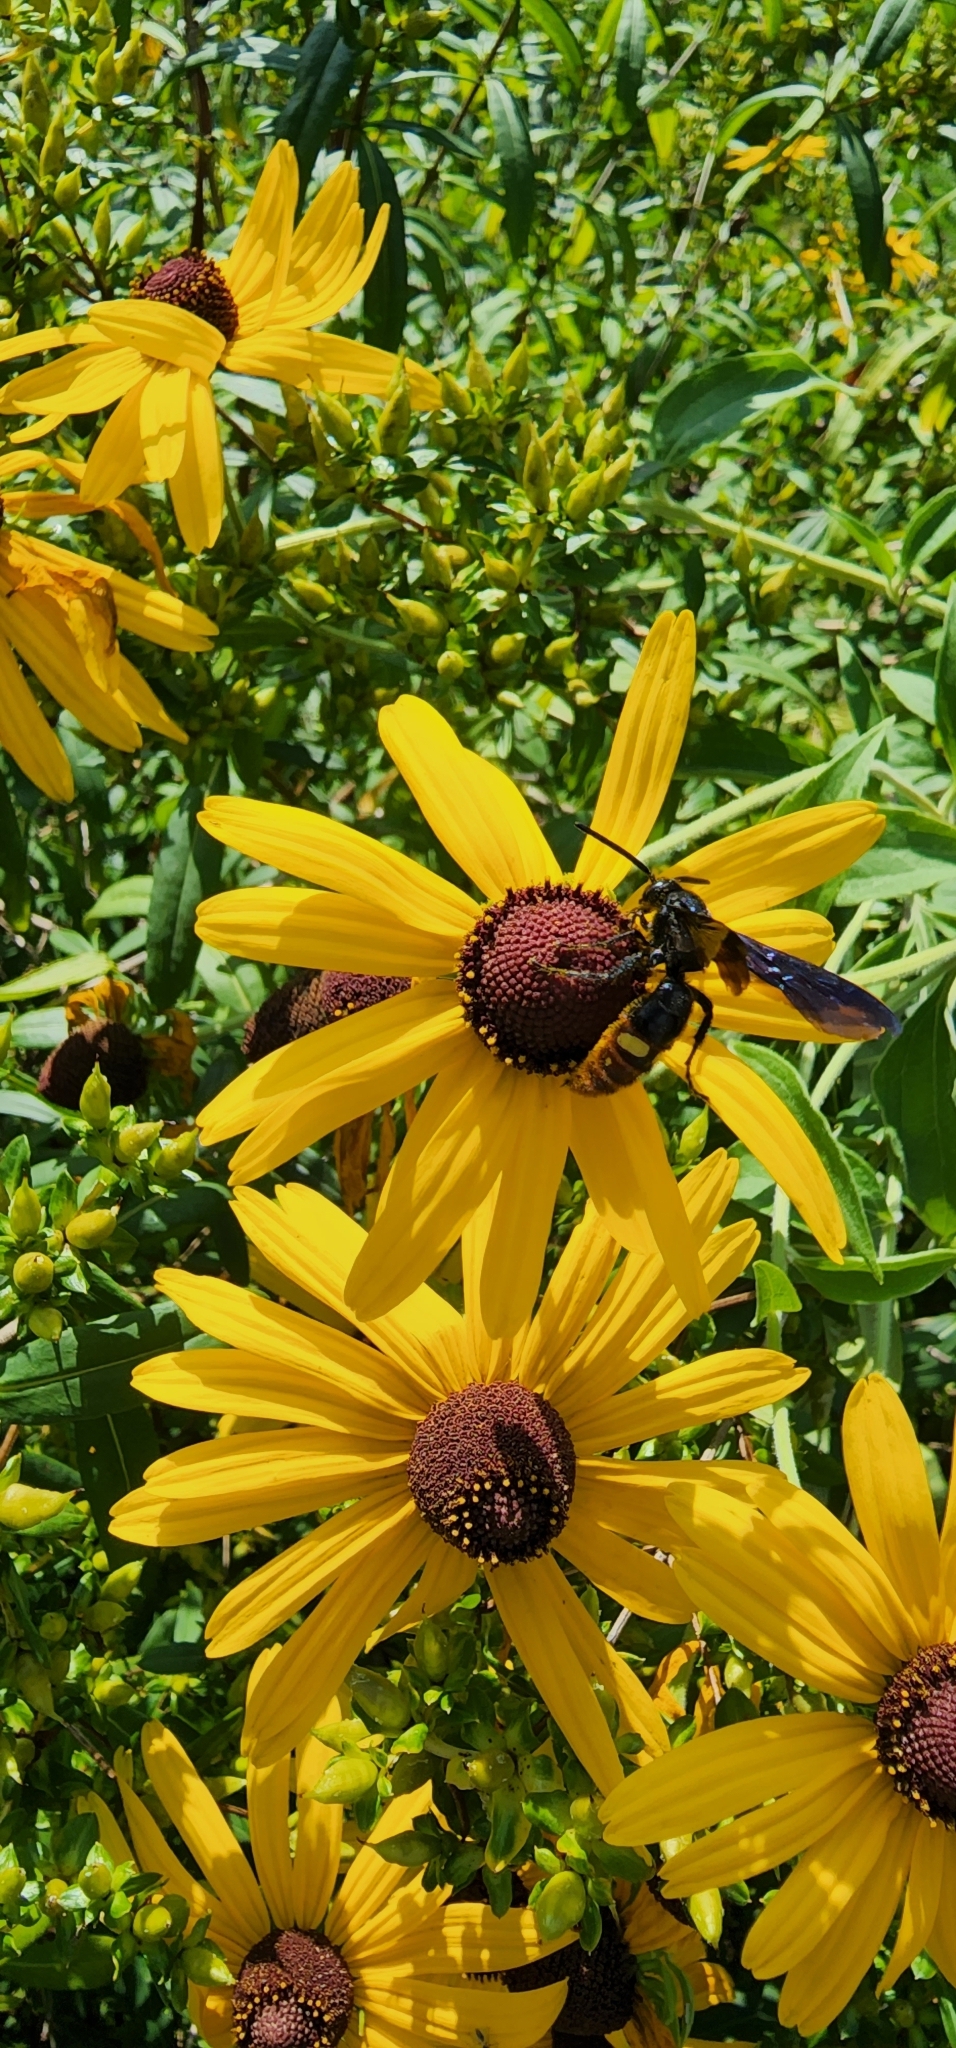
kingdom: Animalia
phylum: Arthropoda
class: Insecta
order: Hymenoptera
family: Scoliidae
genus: Scolia
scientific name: Scolia dubia
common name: Blue-winged scoliid wasp
